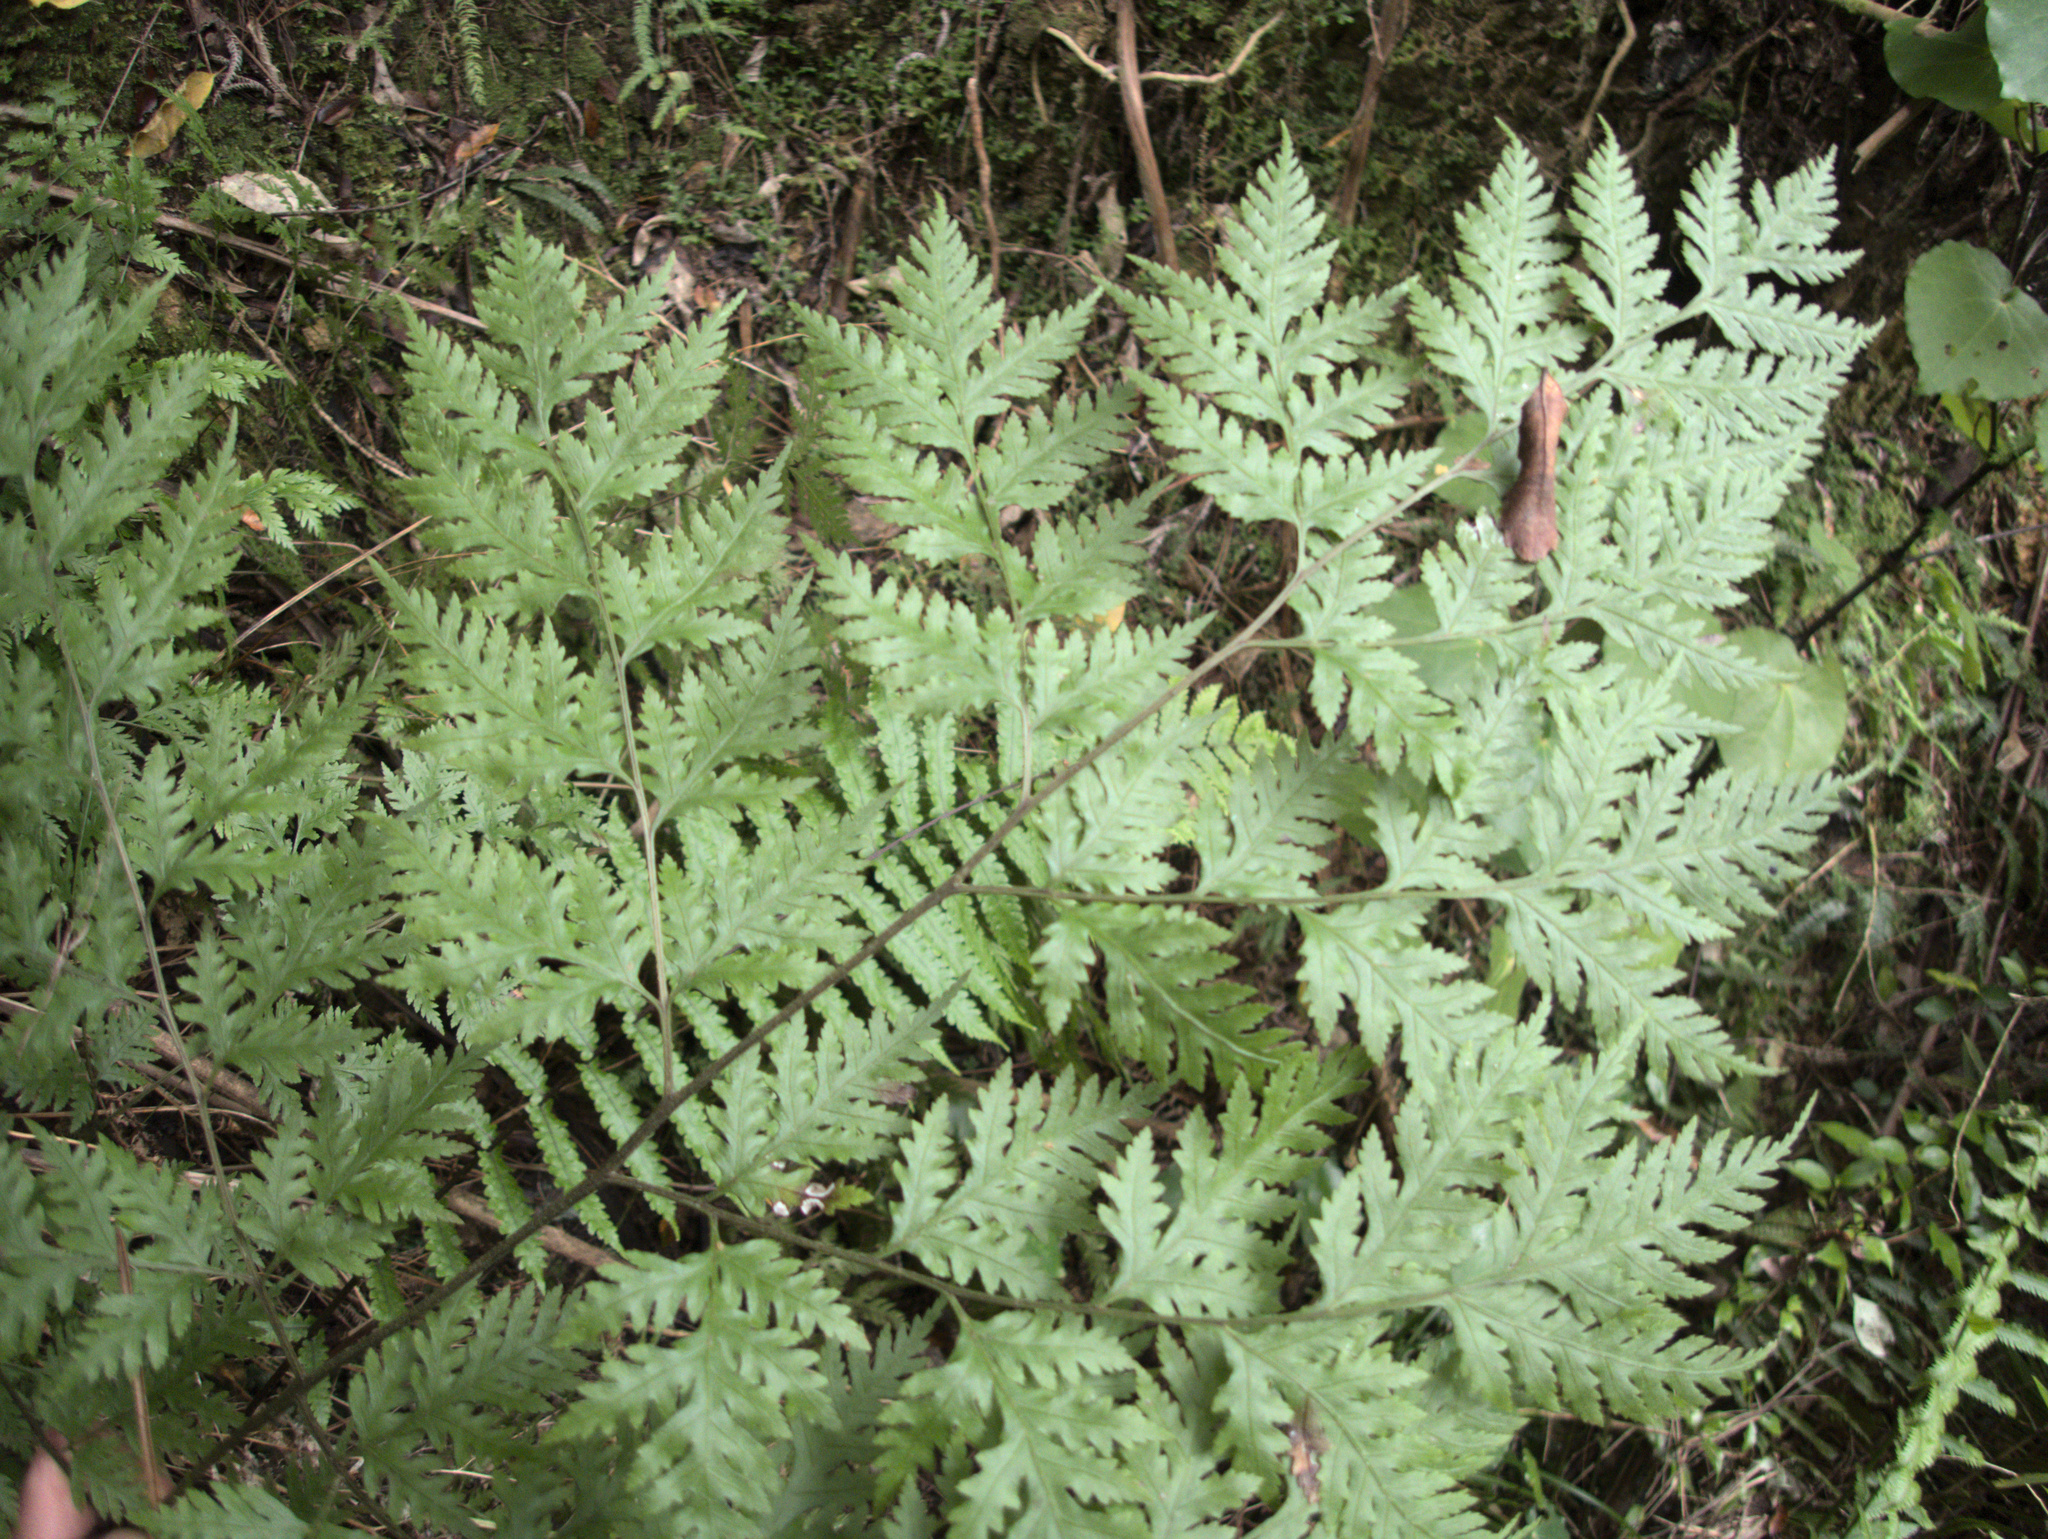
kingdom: Plantae
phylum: Tracheophyta
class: Polypodiopsida
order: Polypodiales
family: Pteridaceae
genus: Pteris
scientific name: Pteris macilenta
